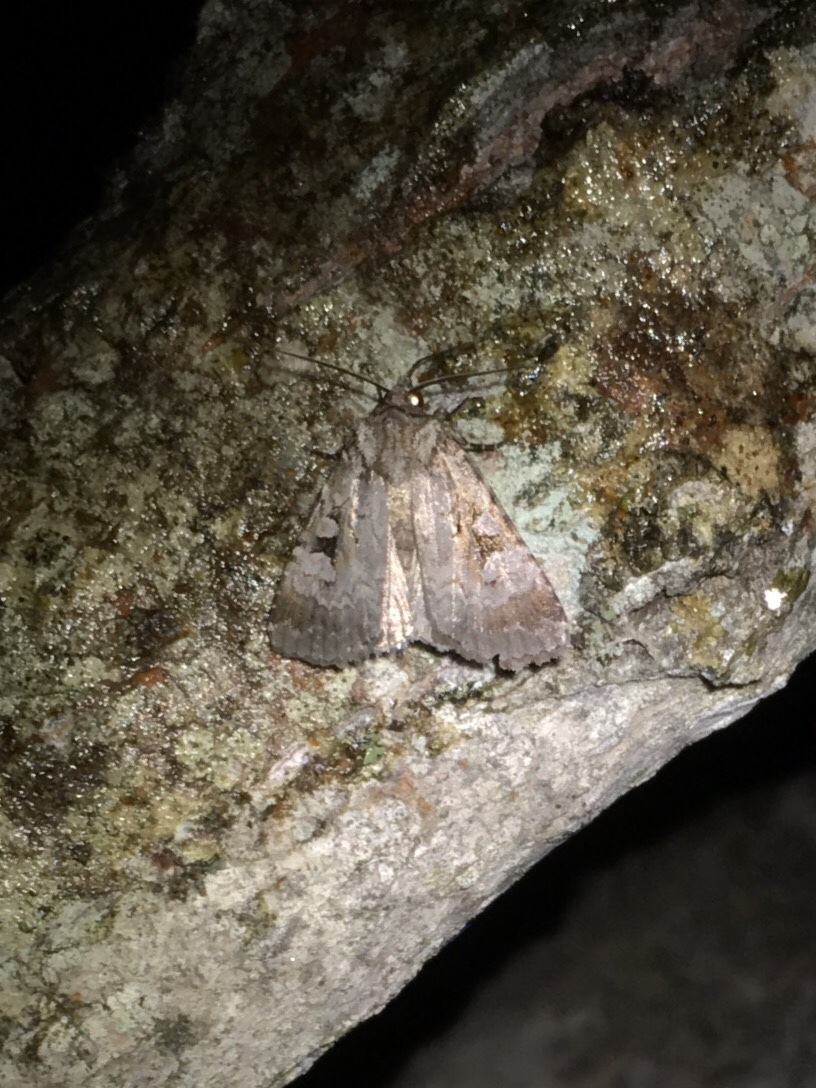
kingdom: Animalia
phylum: Arthropoda
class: Insecta
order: Lepidoptera
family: Noctuidae
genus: Feltia
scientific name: Feltia geniculata
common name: Knee-joint dart
